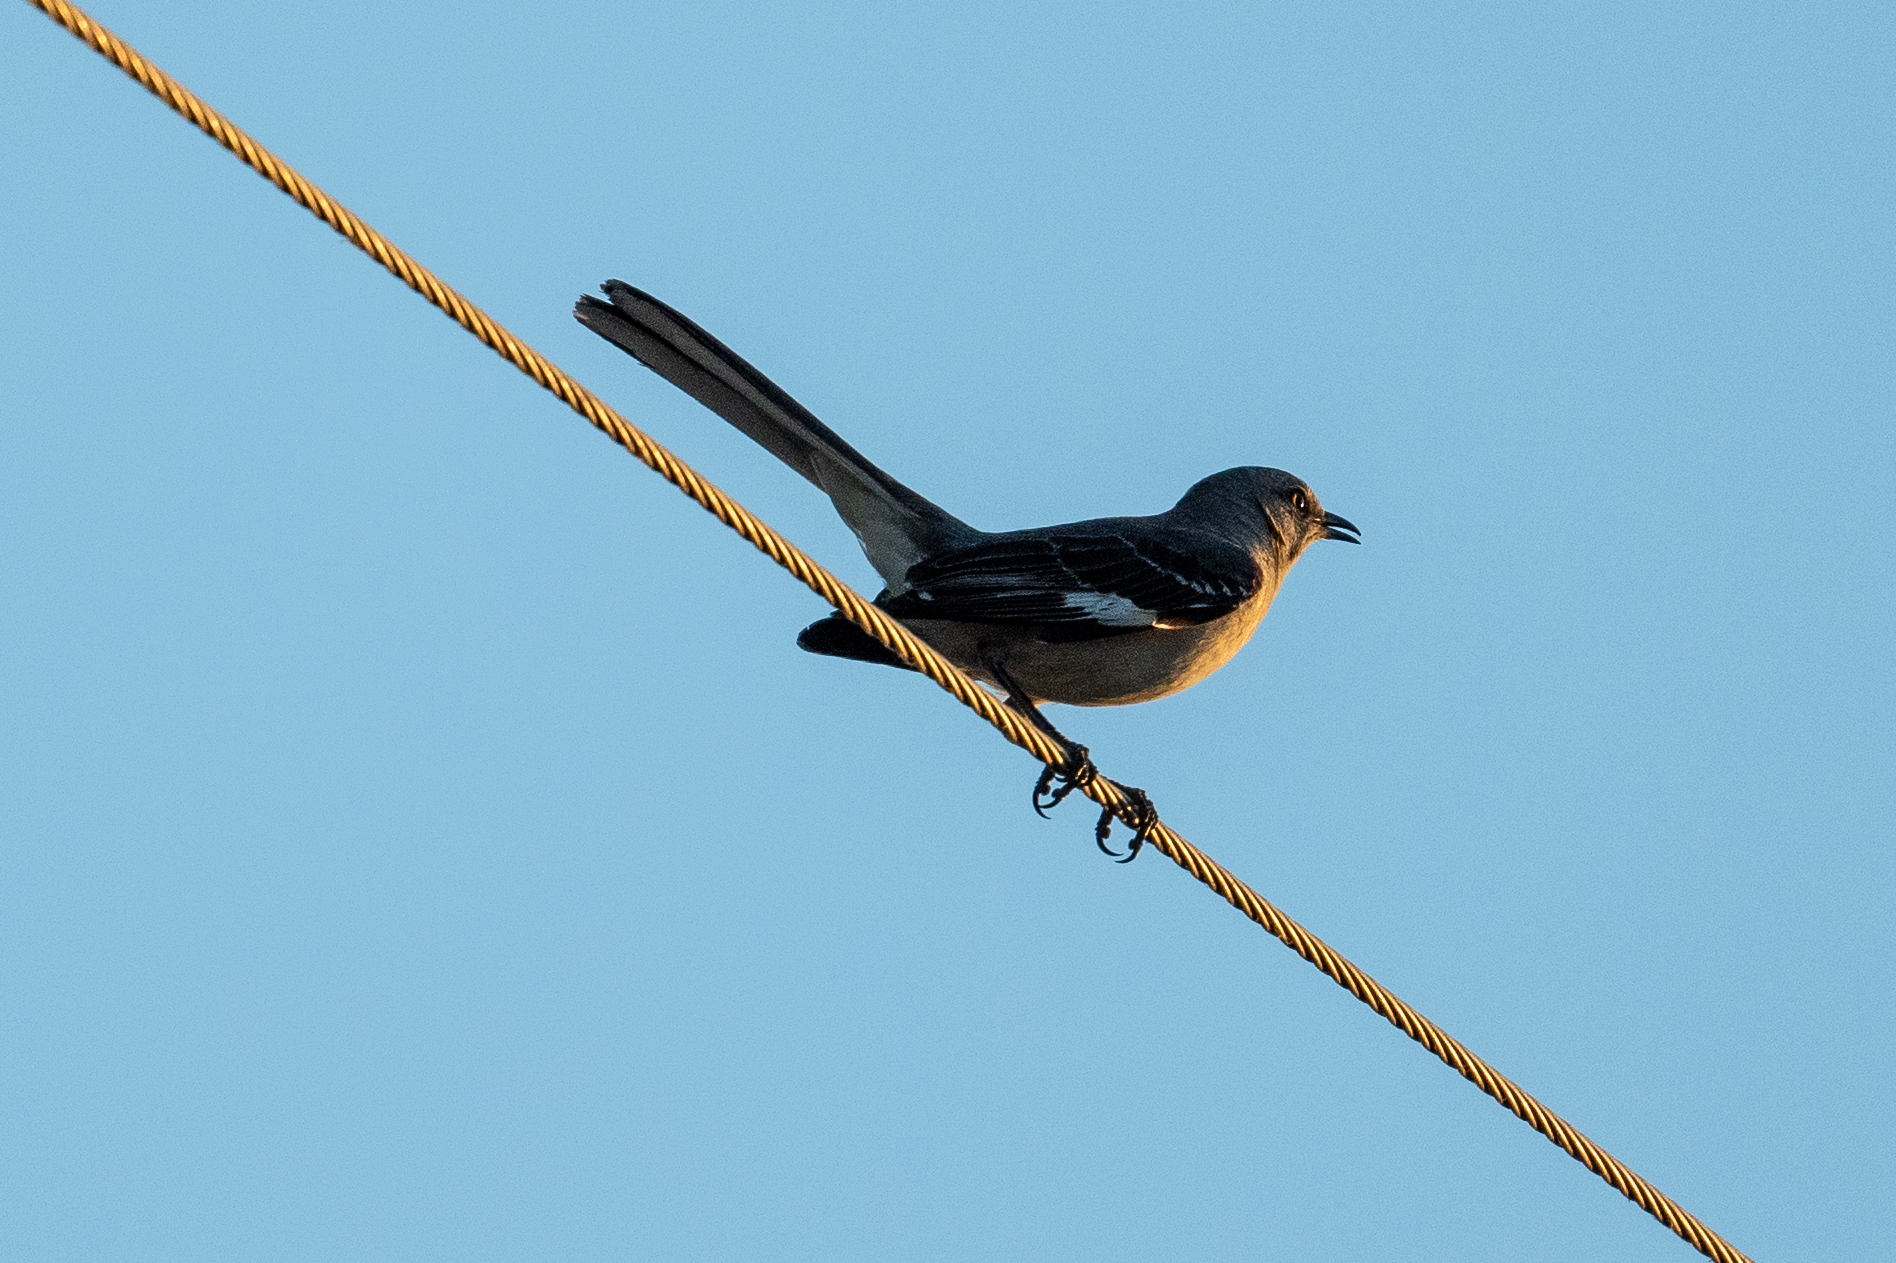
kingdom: Animalia
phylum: Chordata
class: Aves
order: Passeriformes
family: Mimidae
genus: Mimus
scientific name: Mimus polyglottos
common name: Northern mockingbird
